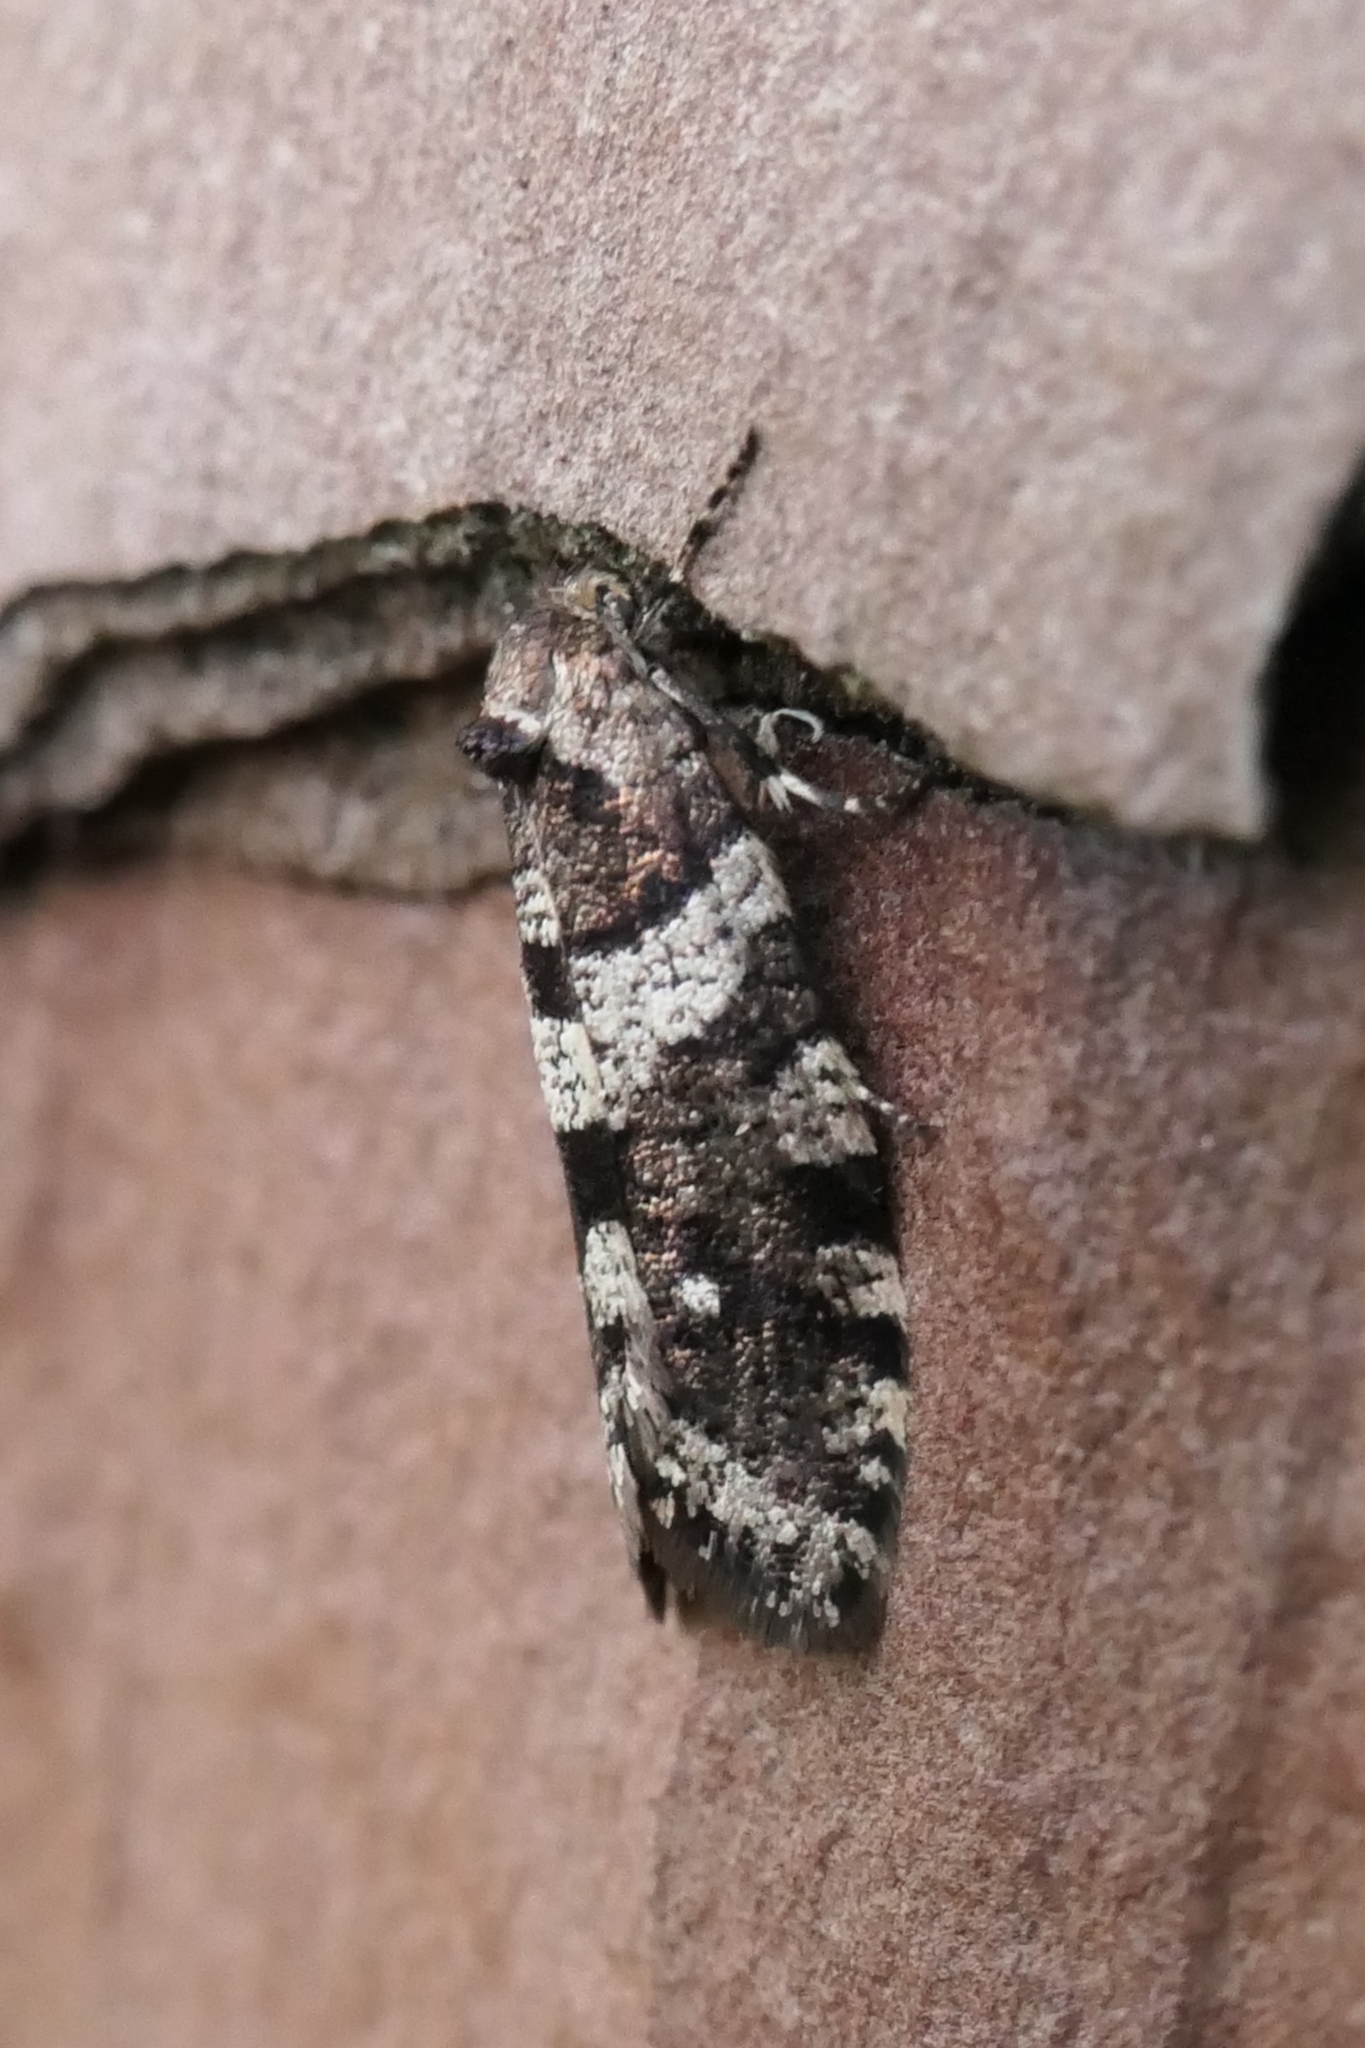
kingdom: Animalia
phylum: Arthropoda
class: Insecta
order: Lepidoptera
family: Psychidae
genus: Lepidoscia
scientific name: Lepidoscia heliochares
